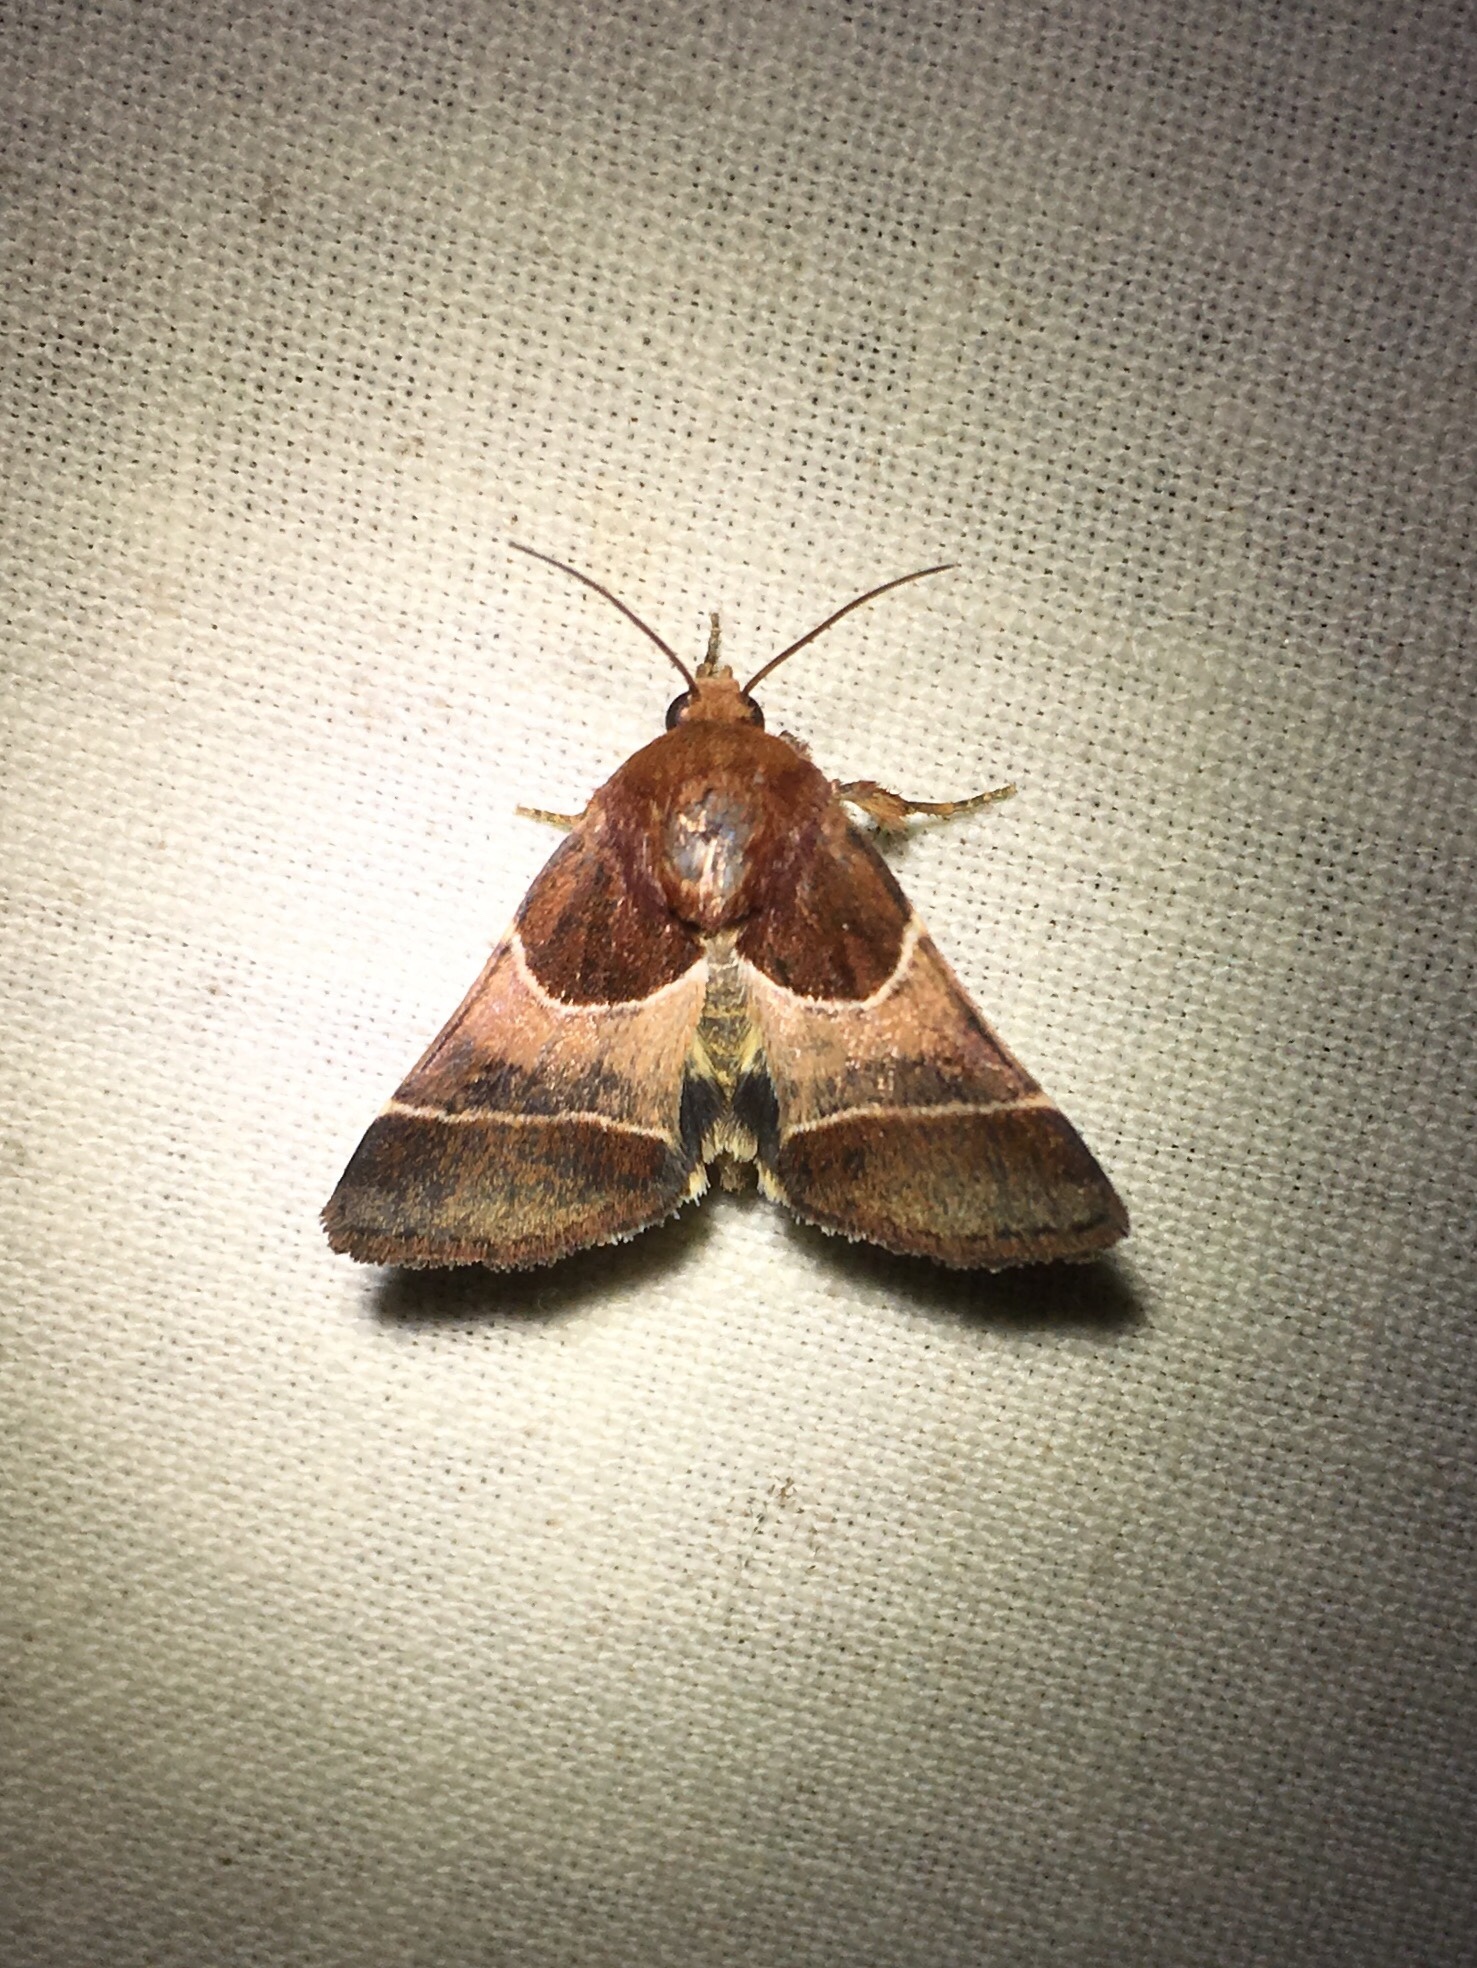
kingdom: Animalia
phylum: Arthropoda
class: Insecta
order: Lepidoptera
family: Noctuidae
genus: Schinia
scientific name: Schinia arcigera
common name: Arcigera flower moth
